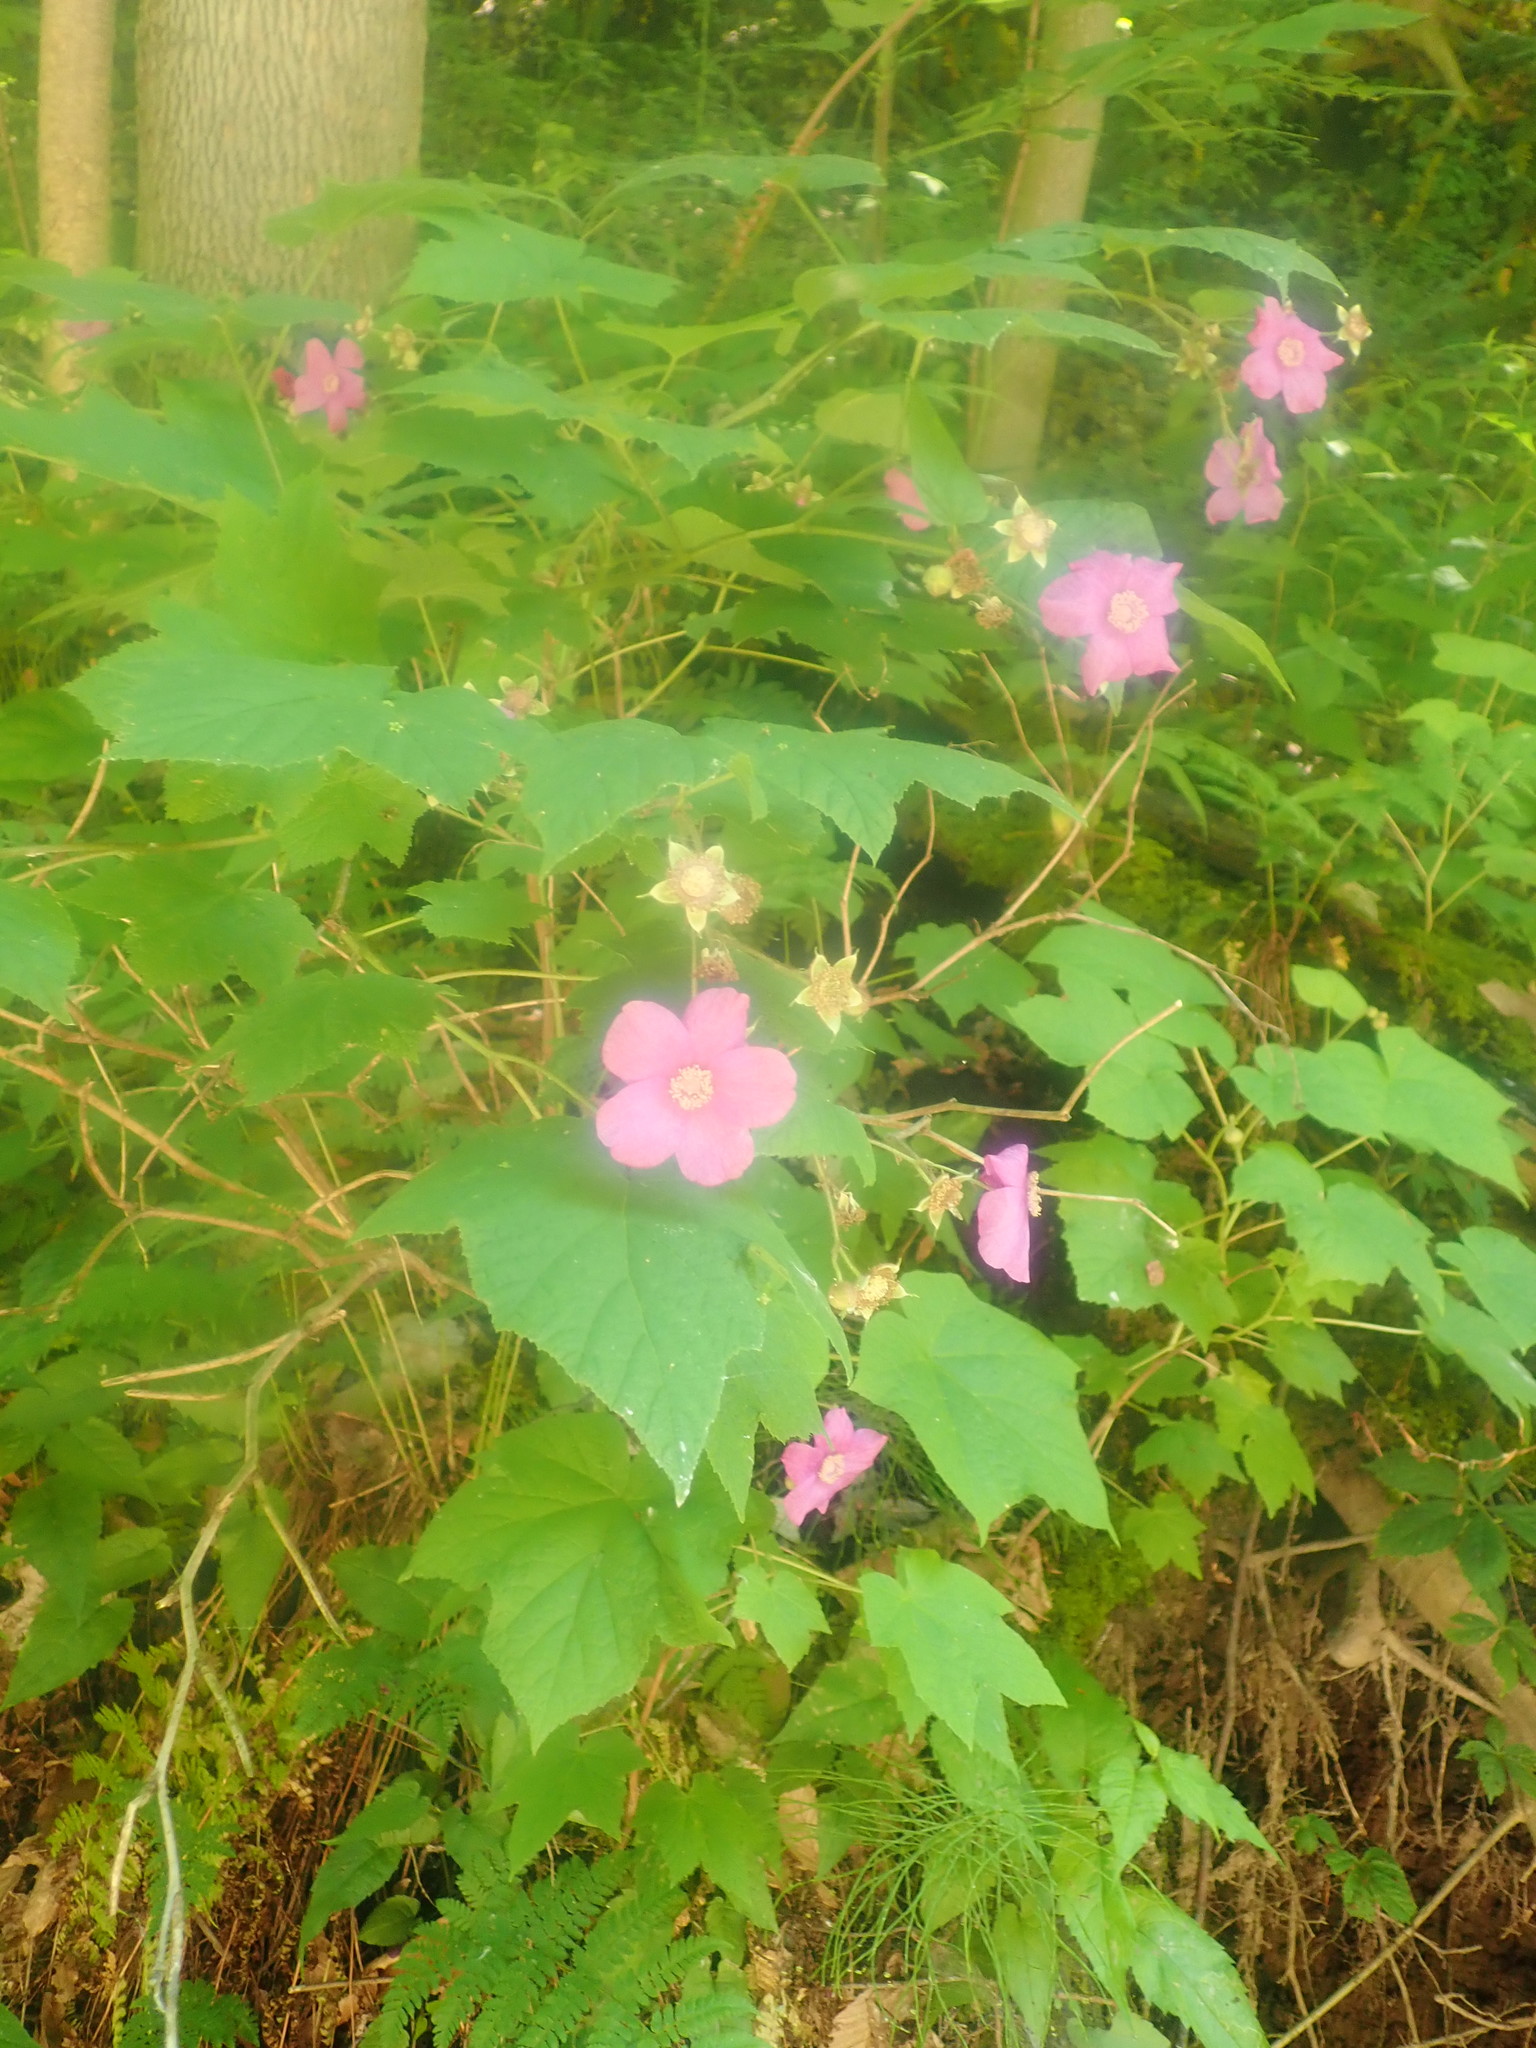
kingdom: Plantae
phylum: Tracheophyta
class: Magnoliopsida
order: Rosales
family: Rosaceae
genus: Rubus
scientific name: Rubus odoratus
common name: Purple-flowered raspberry
